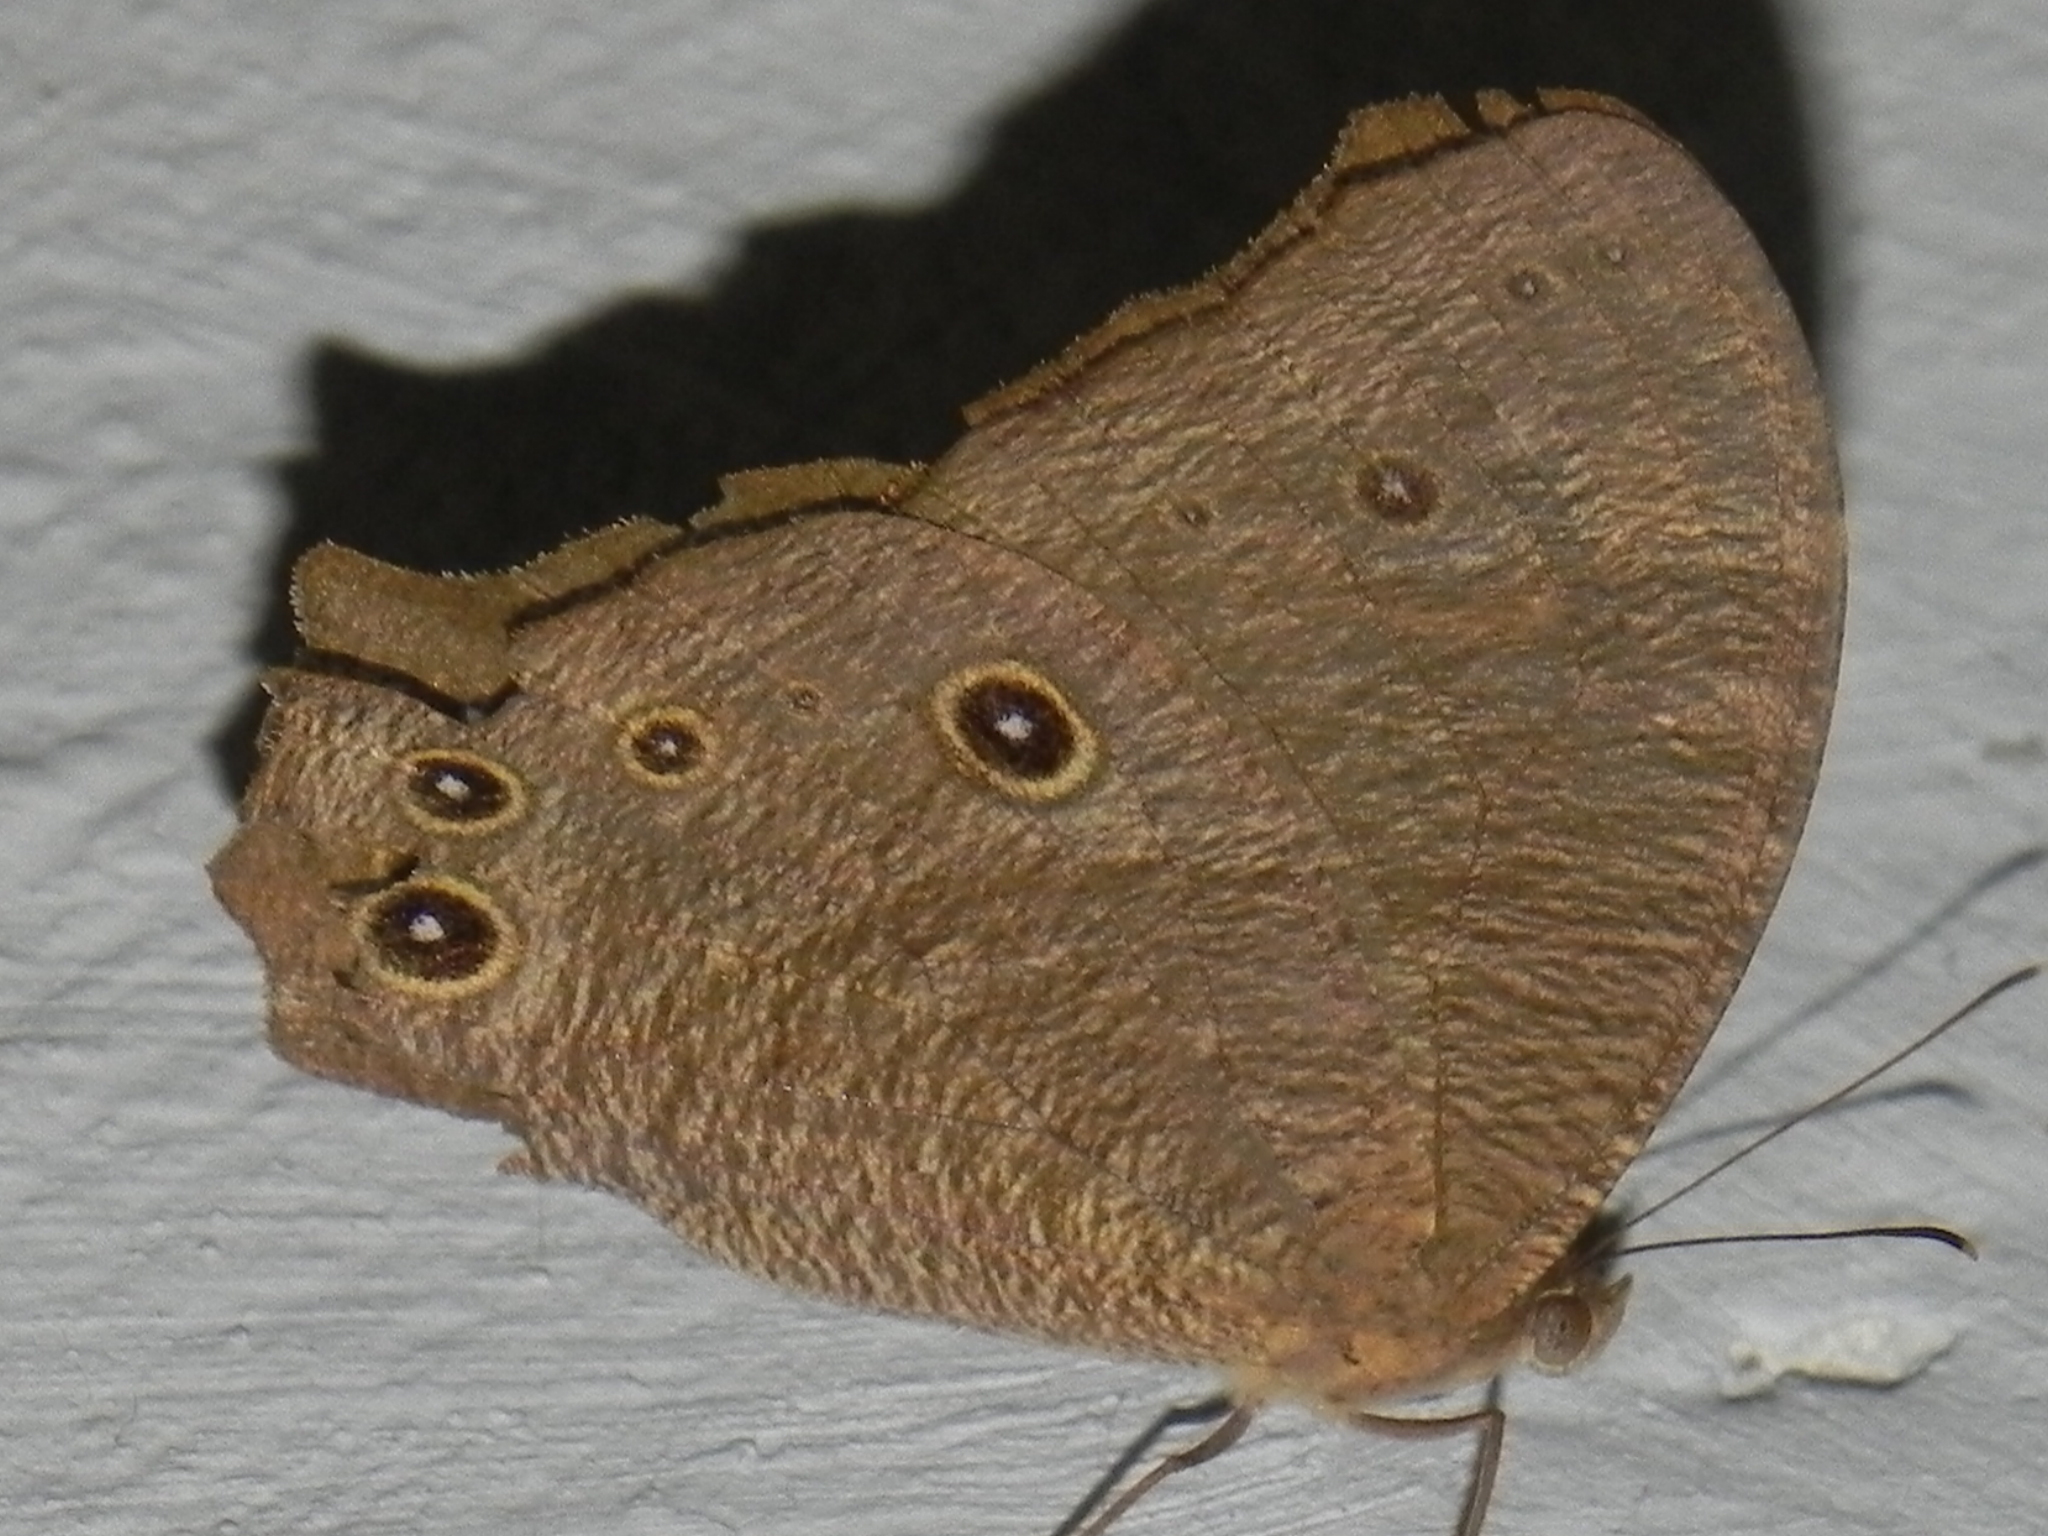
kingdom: Animalia
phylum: Arthropoda
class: Insecta
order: Lepidoptera
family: Nymphalidae
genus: Melanitis
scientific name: Melanitis leda
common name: Twilight brown
